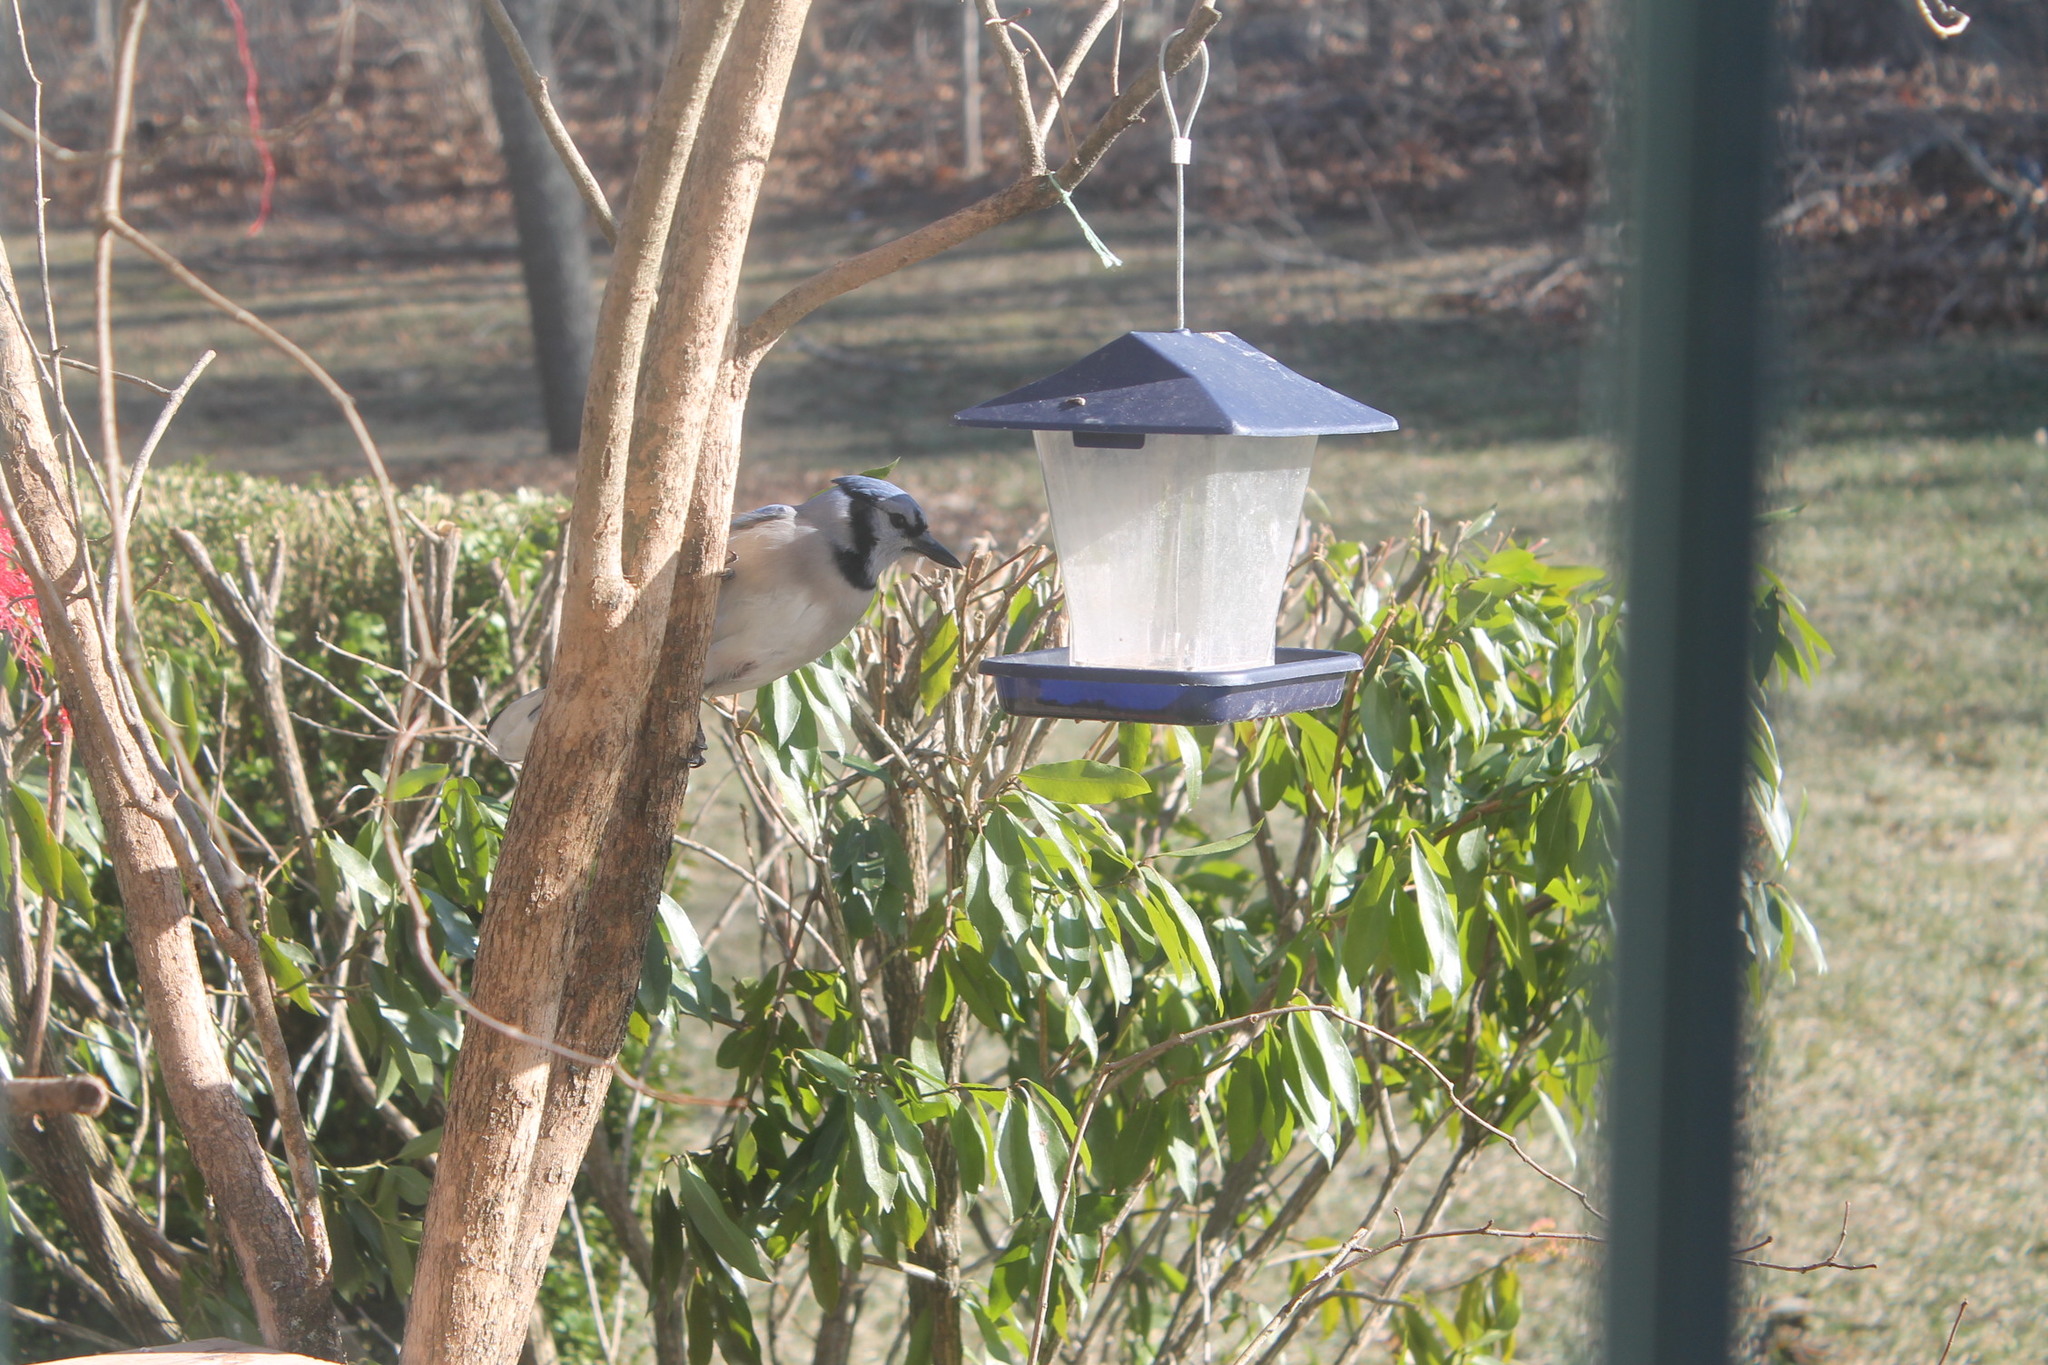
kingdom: Animalia
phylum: Chordata
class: Aves
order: Passeriformes
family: Corvidae
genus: Cyanocitta
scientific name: Cyanocitta cristata
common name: Blue jay
